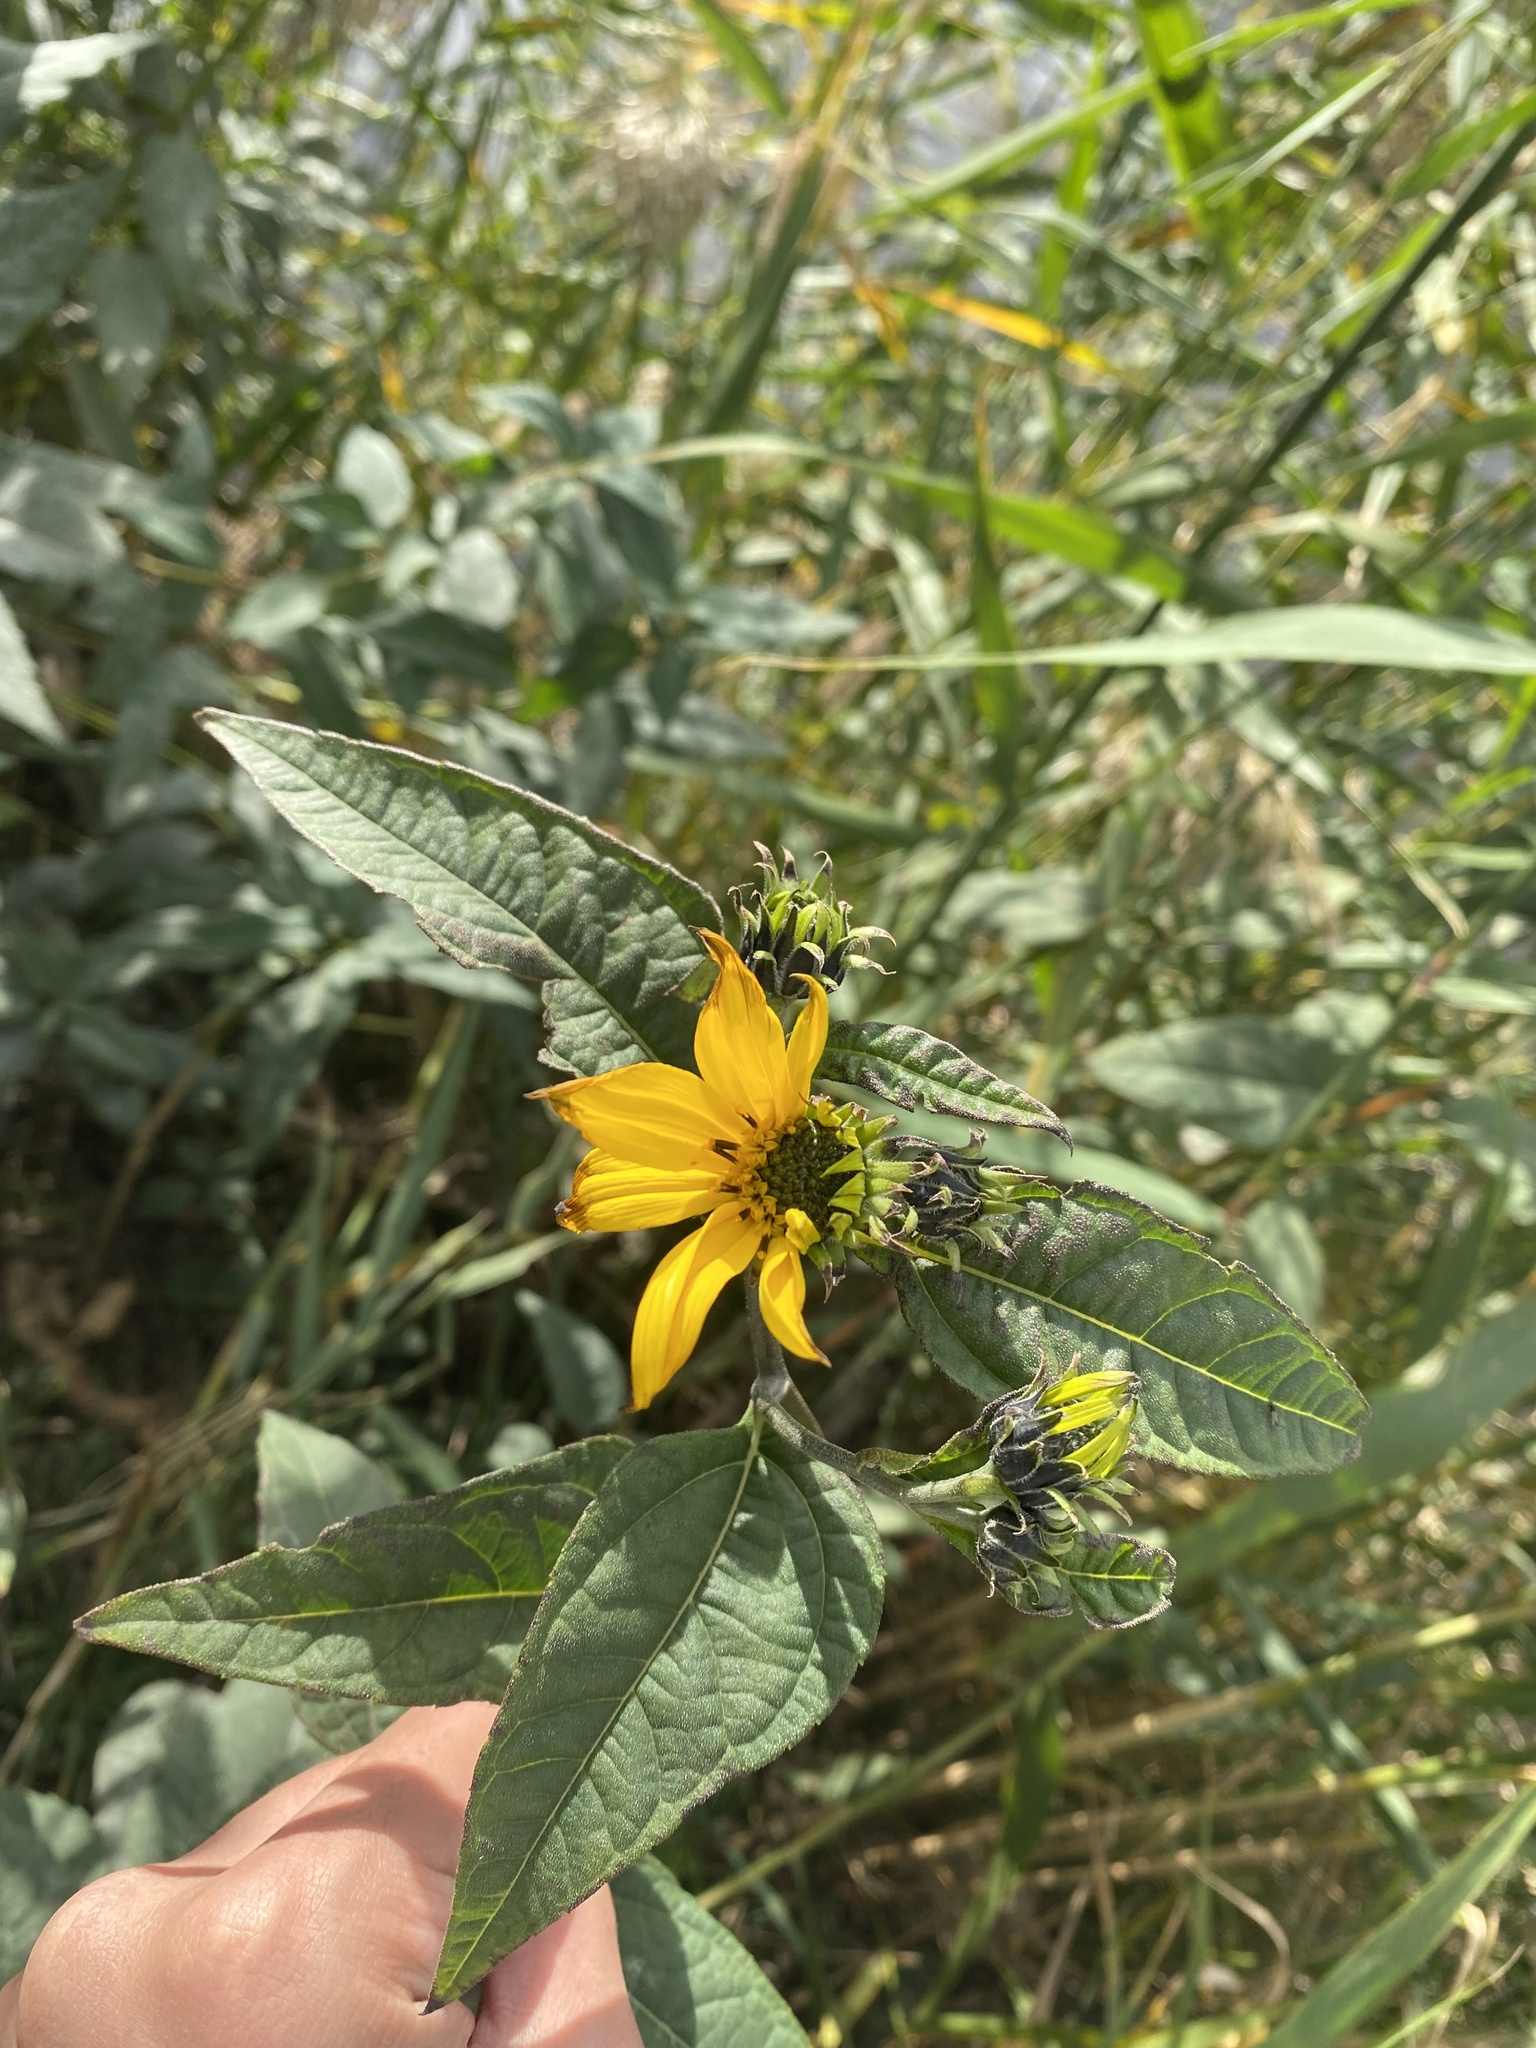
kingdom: Plantae
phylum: Tracheophyta
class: Magnoliopsida
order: Asterales
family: Asteraceae
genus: Helianthus
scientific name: Helianthus tuberosus
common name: Jerusalem artichoke
